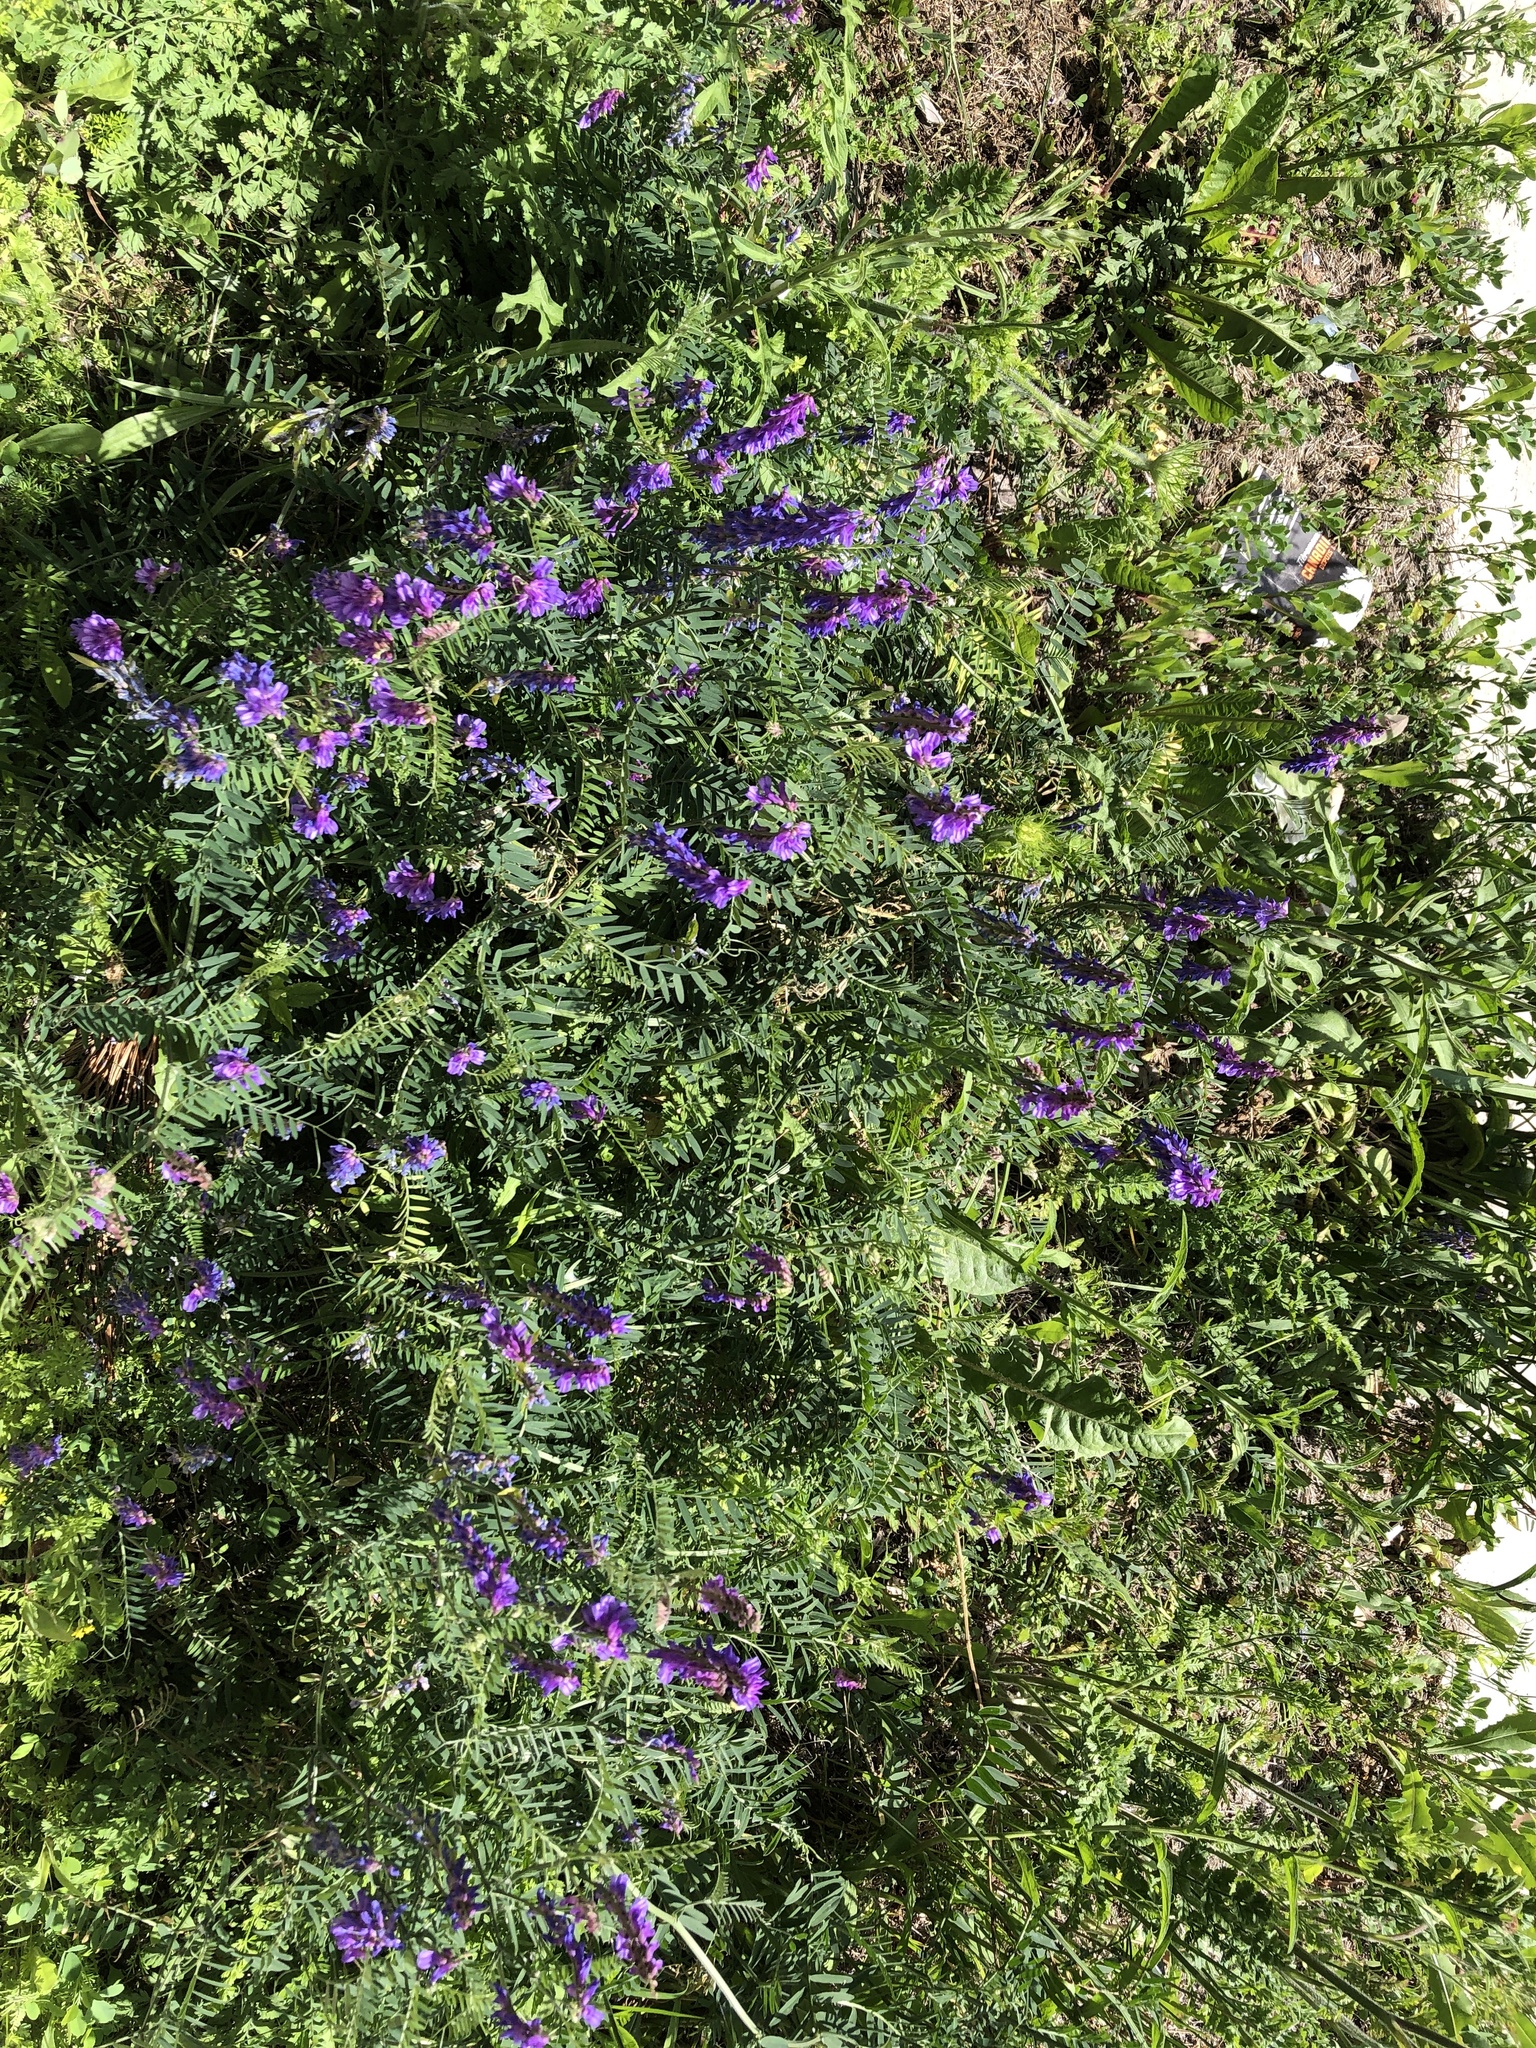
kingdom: Plantae
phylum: Tracheophyta
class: Magnoliopsida
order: Fabales
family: Fabaceae
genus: Vicia
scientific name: Vicia cracca
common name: Bird vetch
